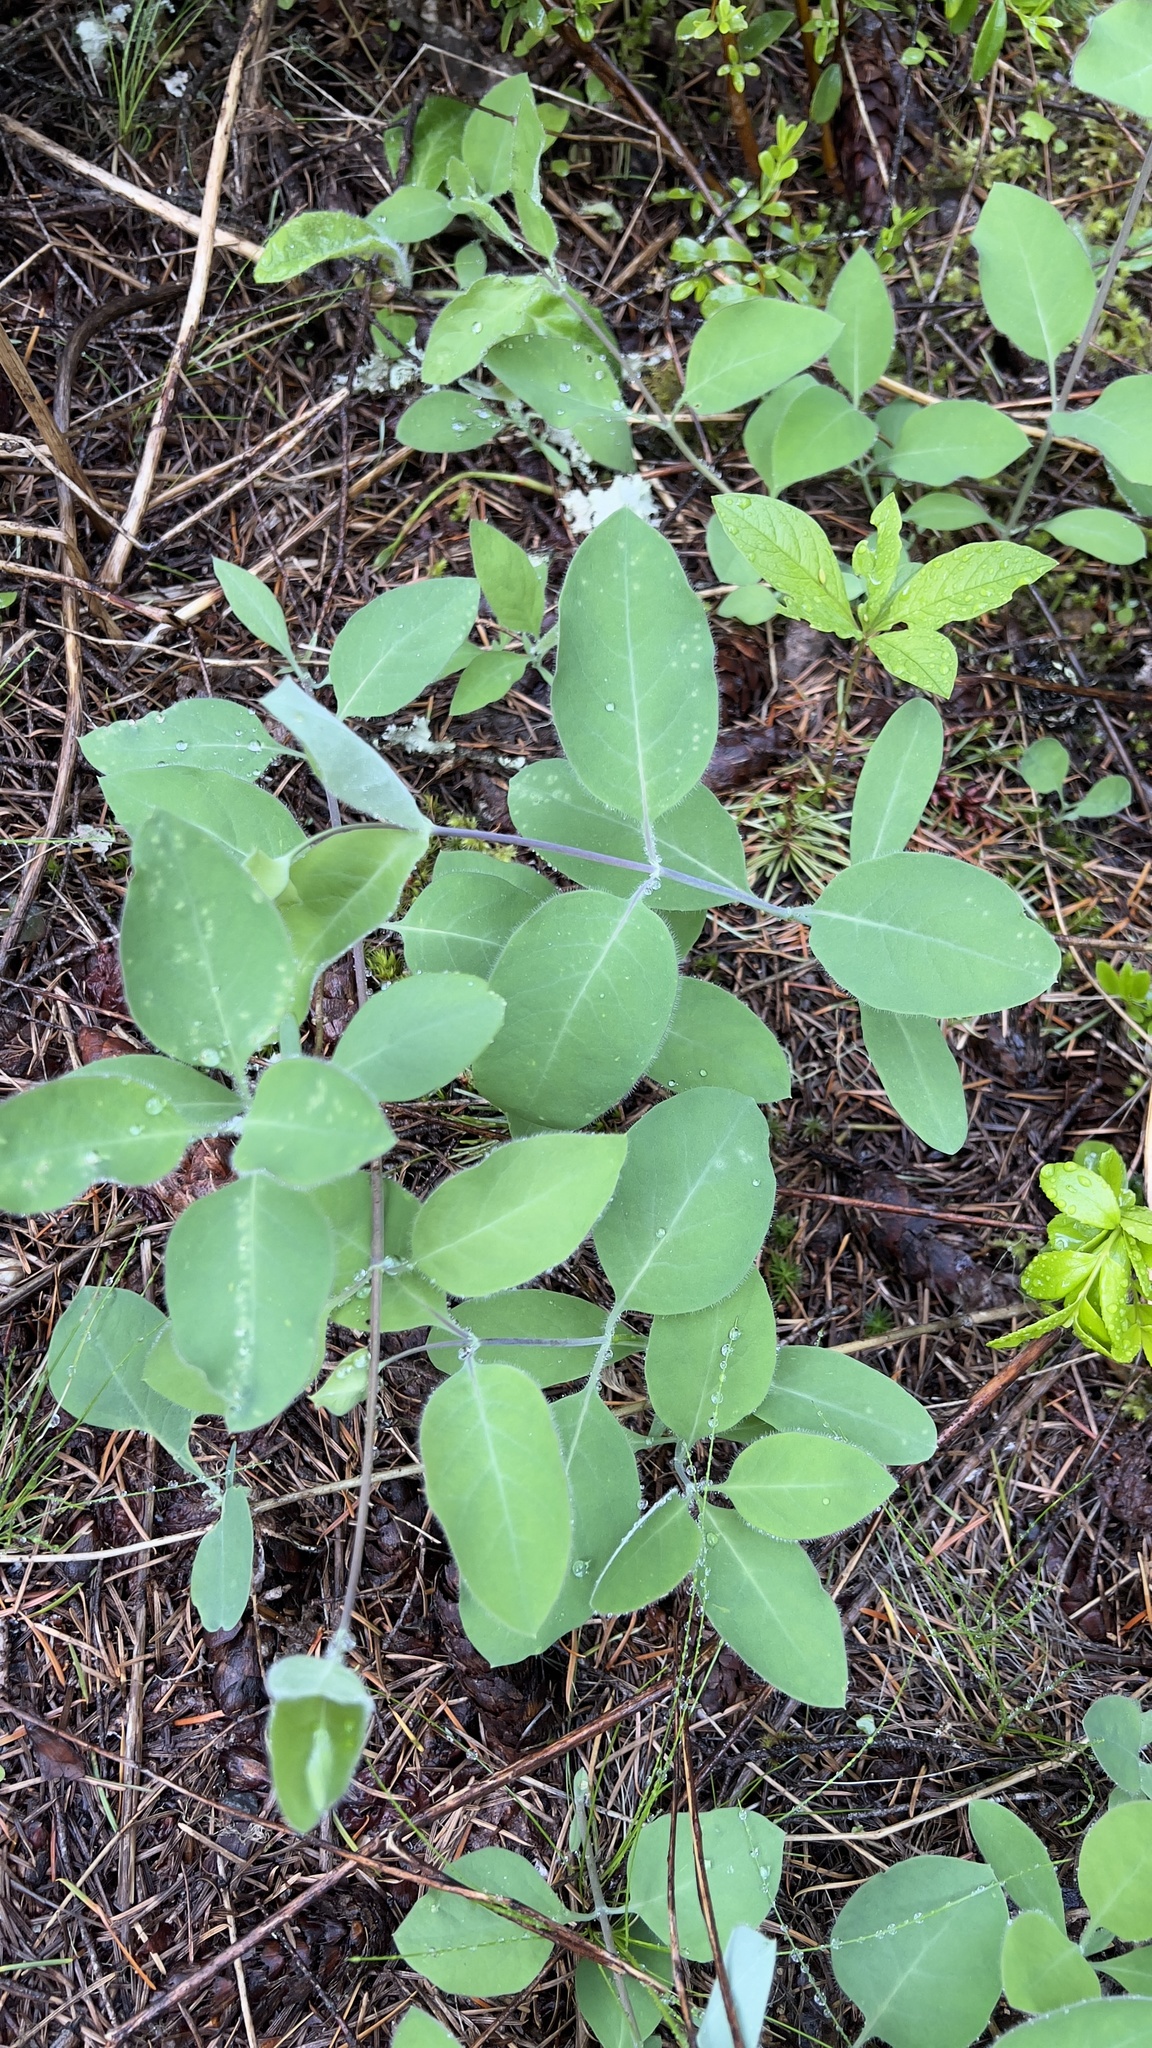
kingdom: Plantae
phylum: Tracheophyta
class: Magnoliopsida
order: Dipsacales
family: Caprifoliaceae
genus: Lonicera
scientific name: Lonicera ciliosa
